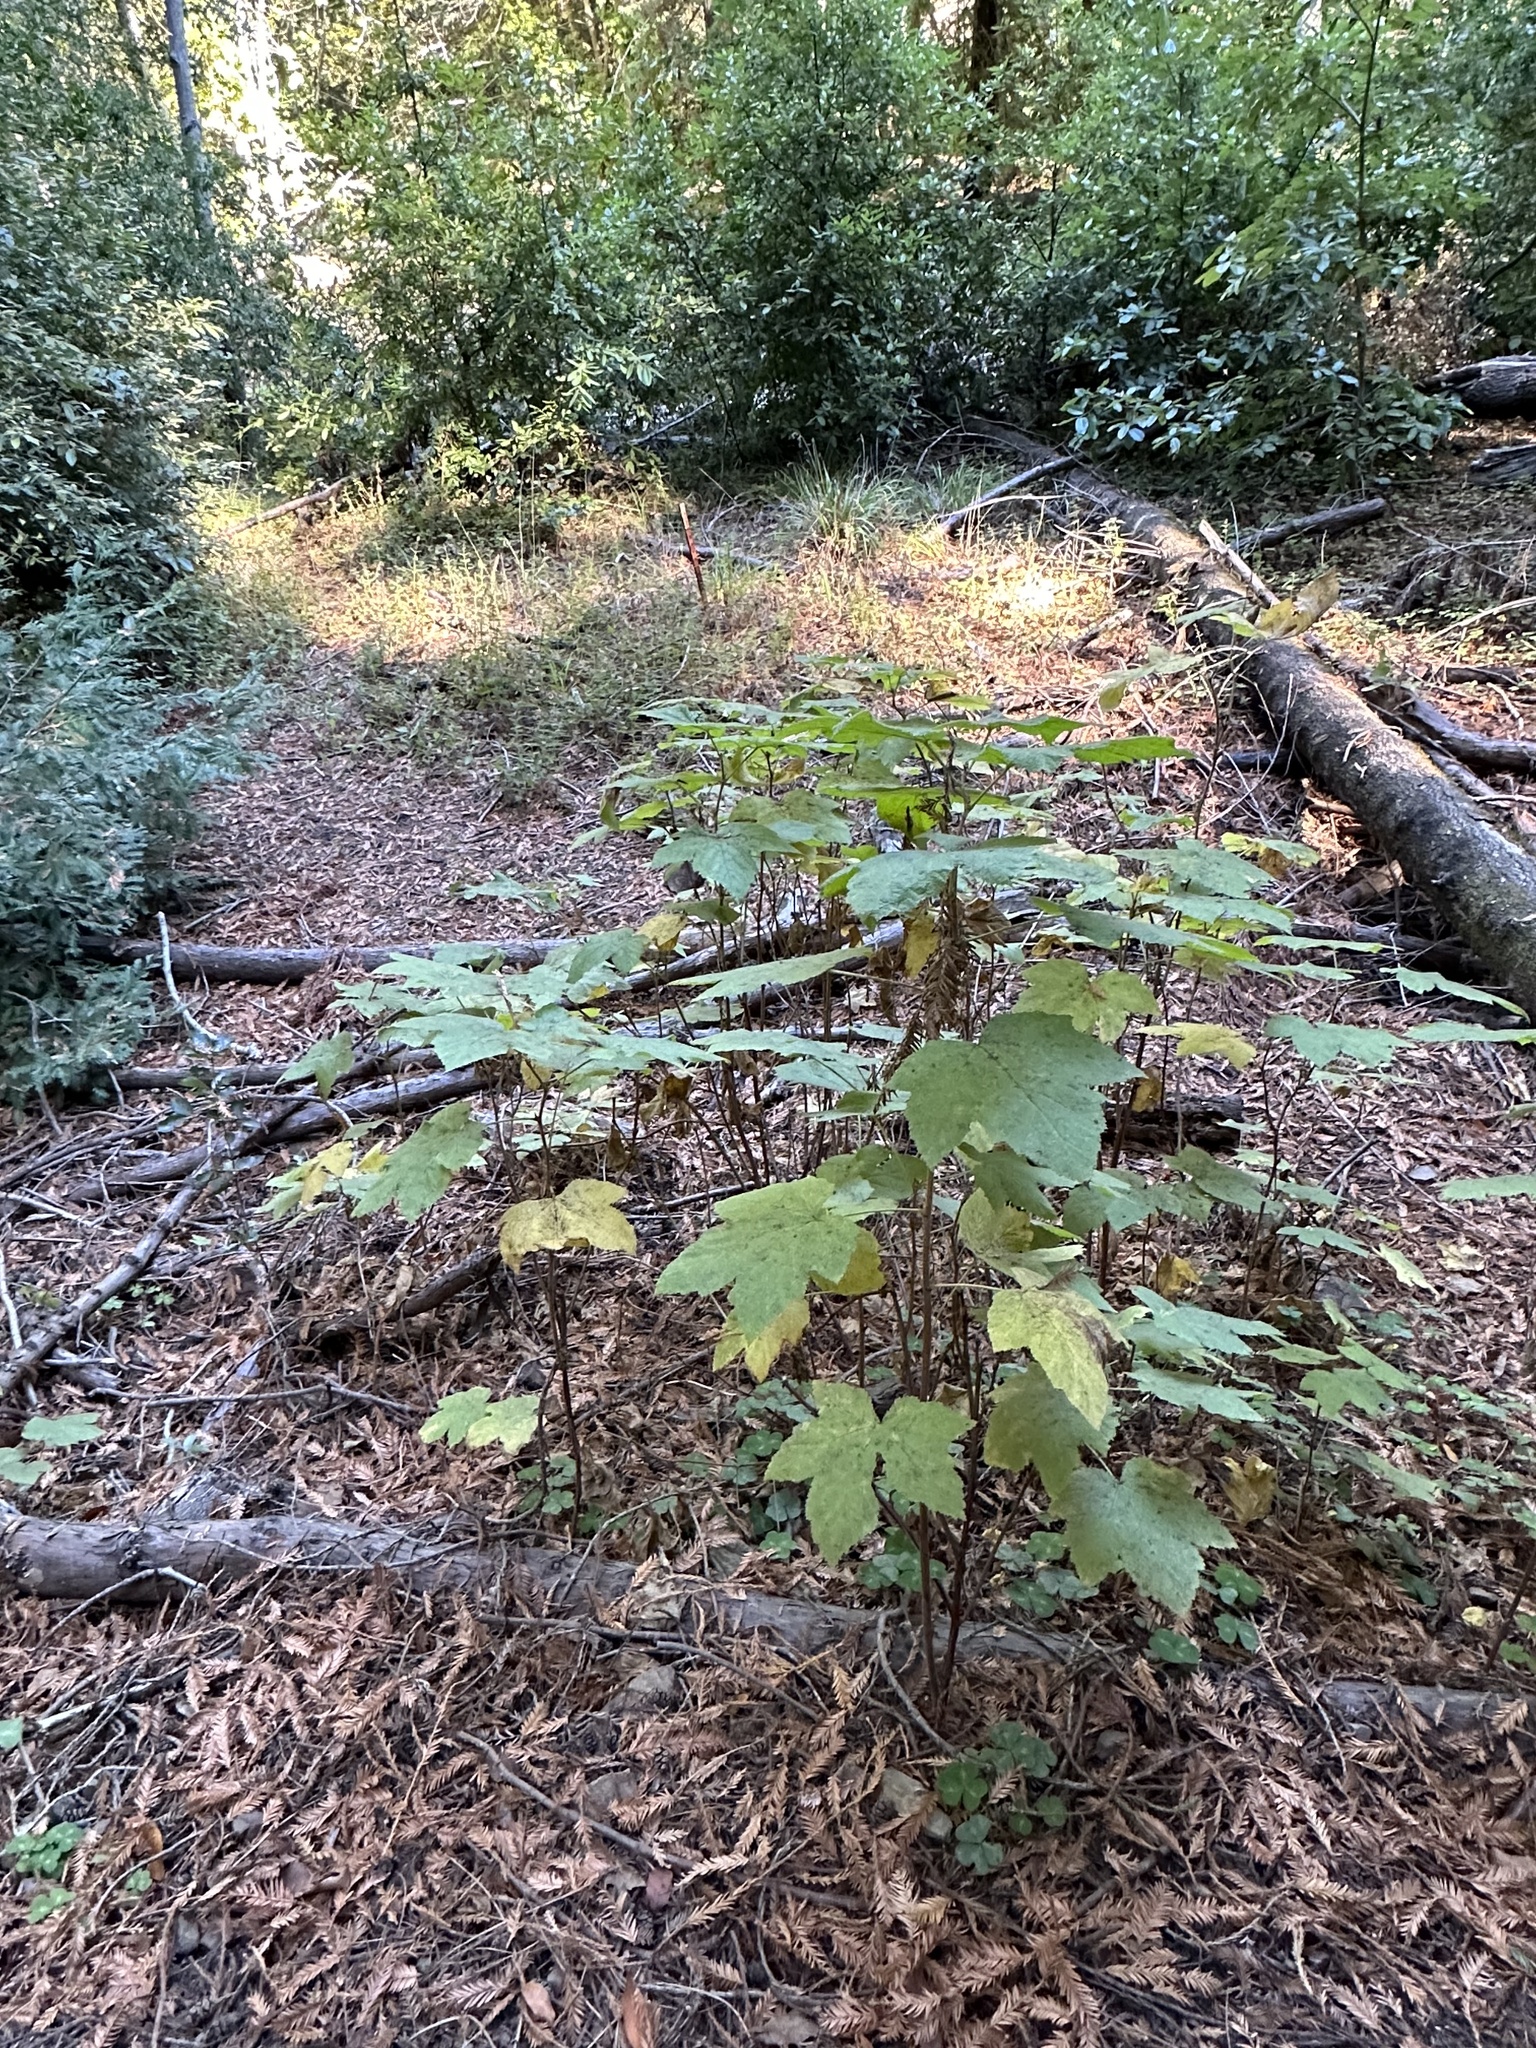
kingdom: Plantae
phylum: Tracheophyta
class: Magnoliopsida
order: Rosales
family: Rosaceae
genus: Rubus
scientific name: Rubus parviflorus
